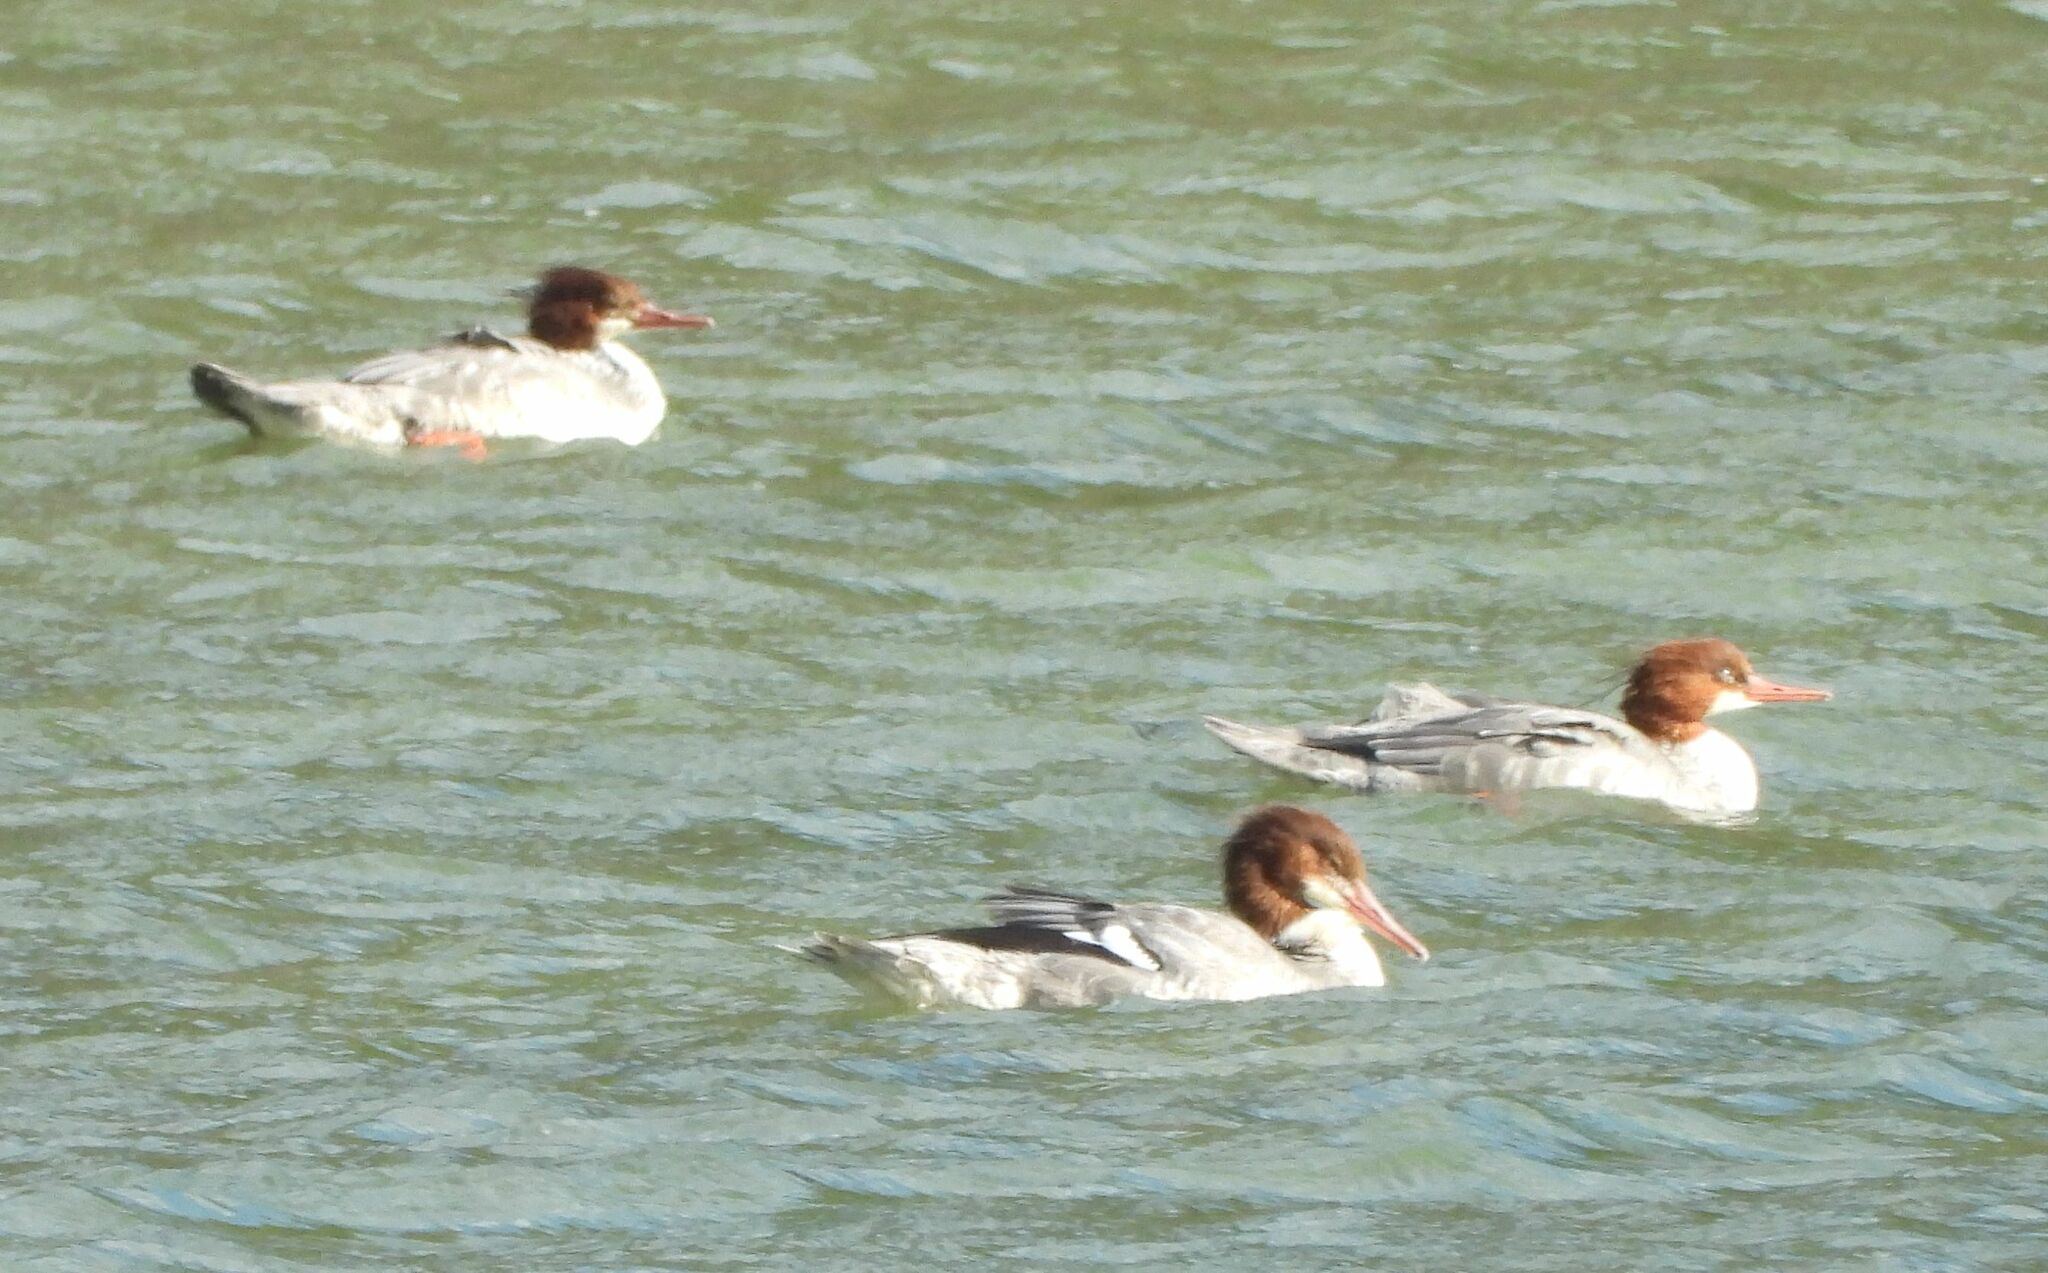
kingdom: Animalia
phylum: Chordata
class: Aves
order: Anseriformes
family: Anatidae
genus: Mergus
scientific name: Mergus merganser
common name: Common merganser
